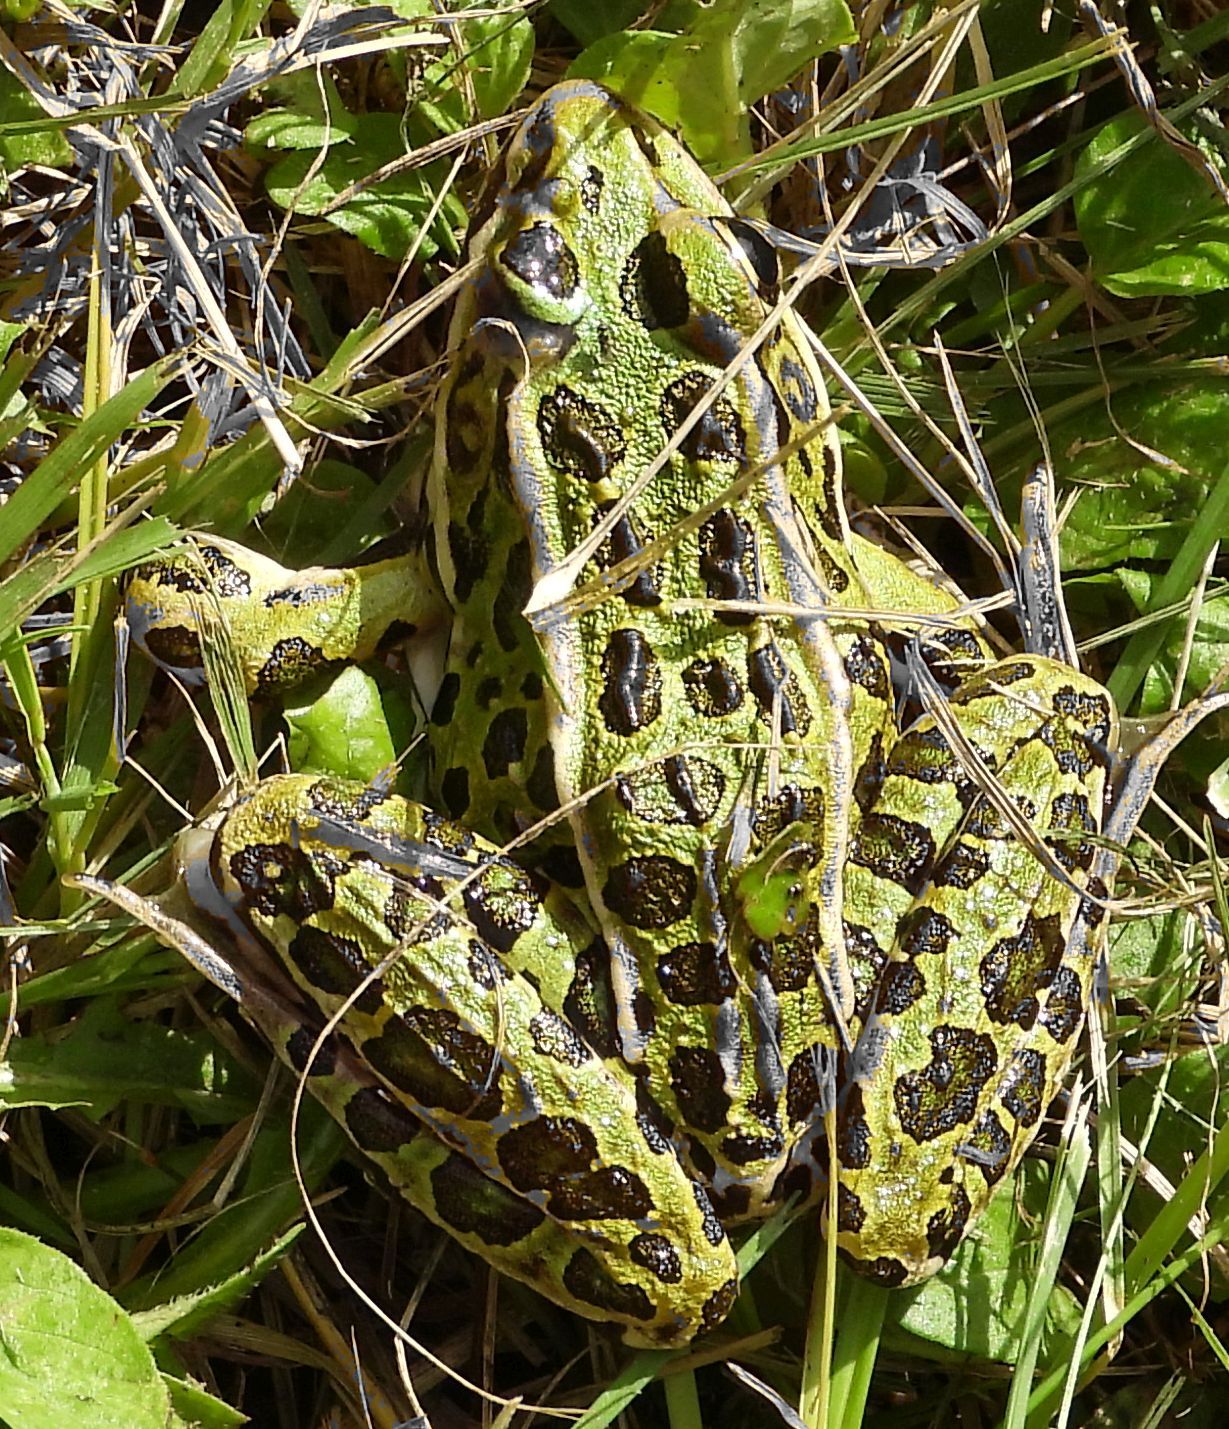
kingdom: Animalia
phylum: Chordata
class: Amphibia
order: Anura
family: Ranidae
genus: Lithobates
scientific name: Lithobates pipiens
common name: Northern leopard frog
